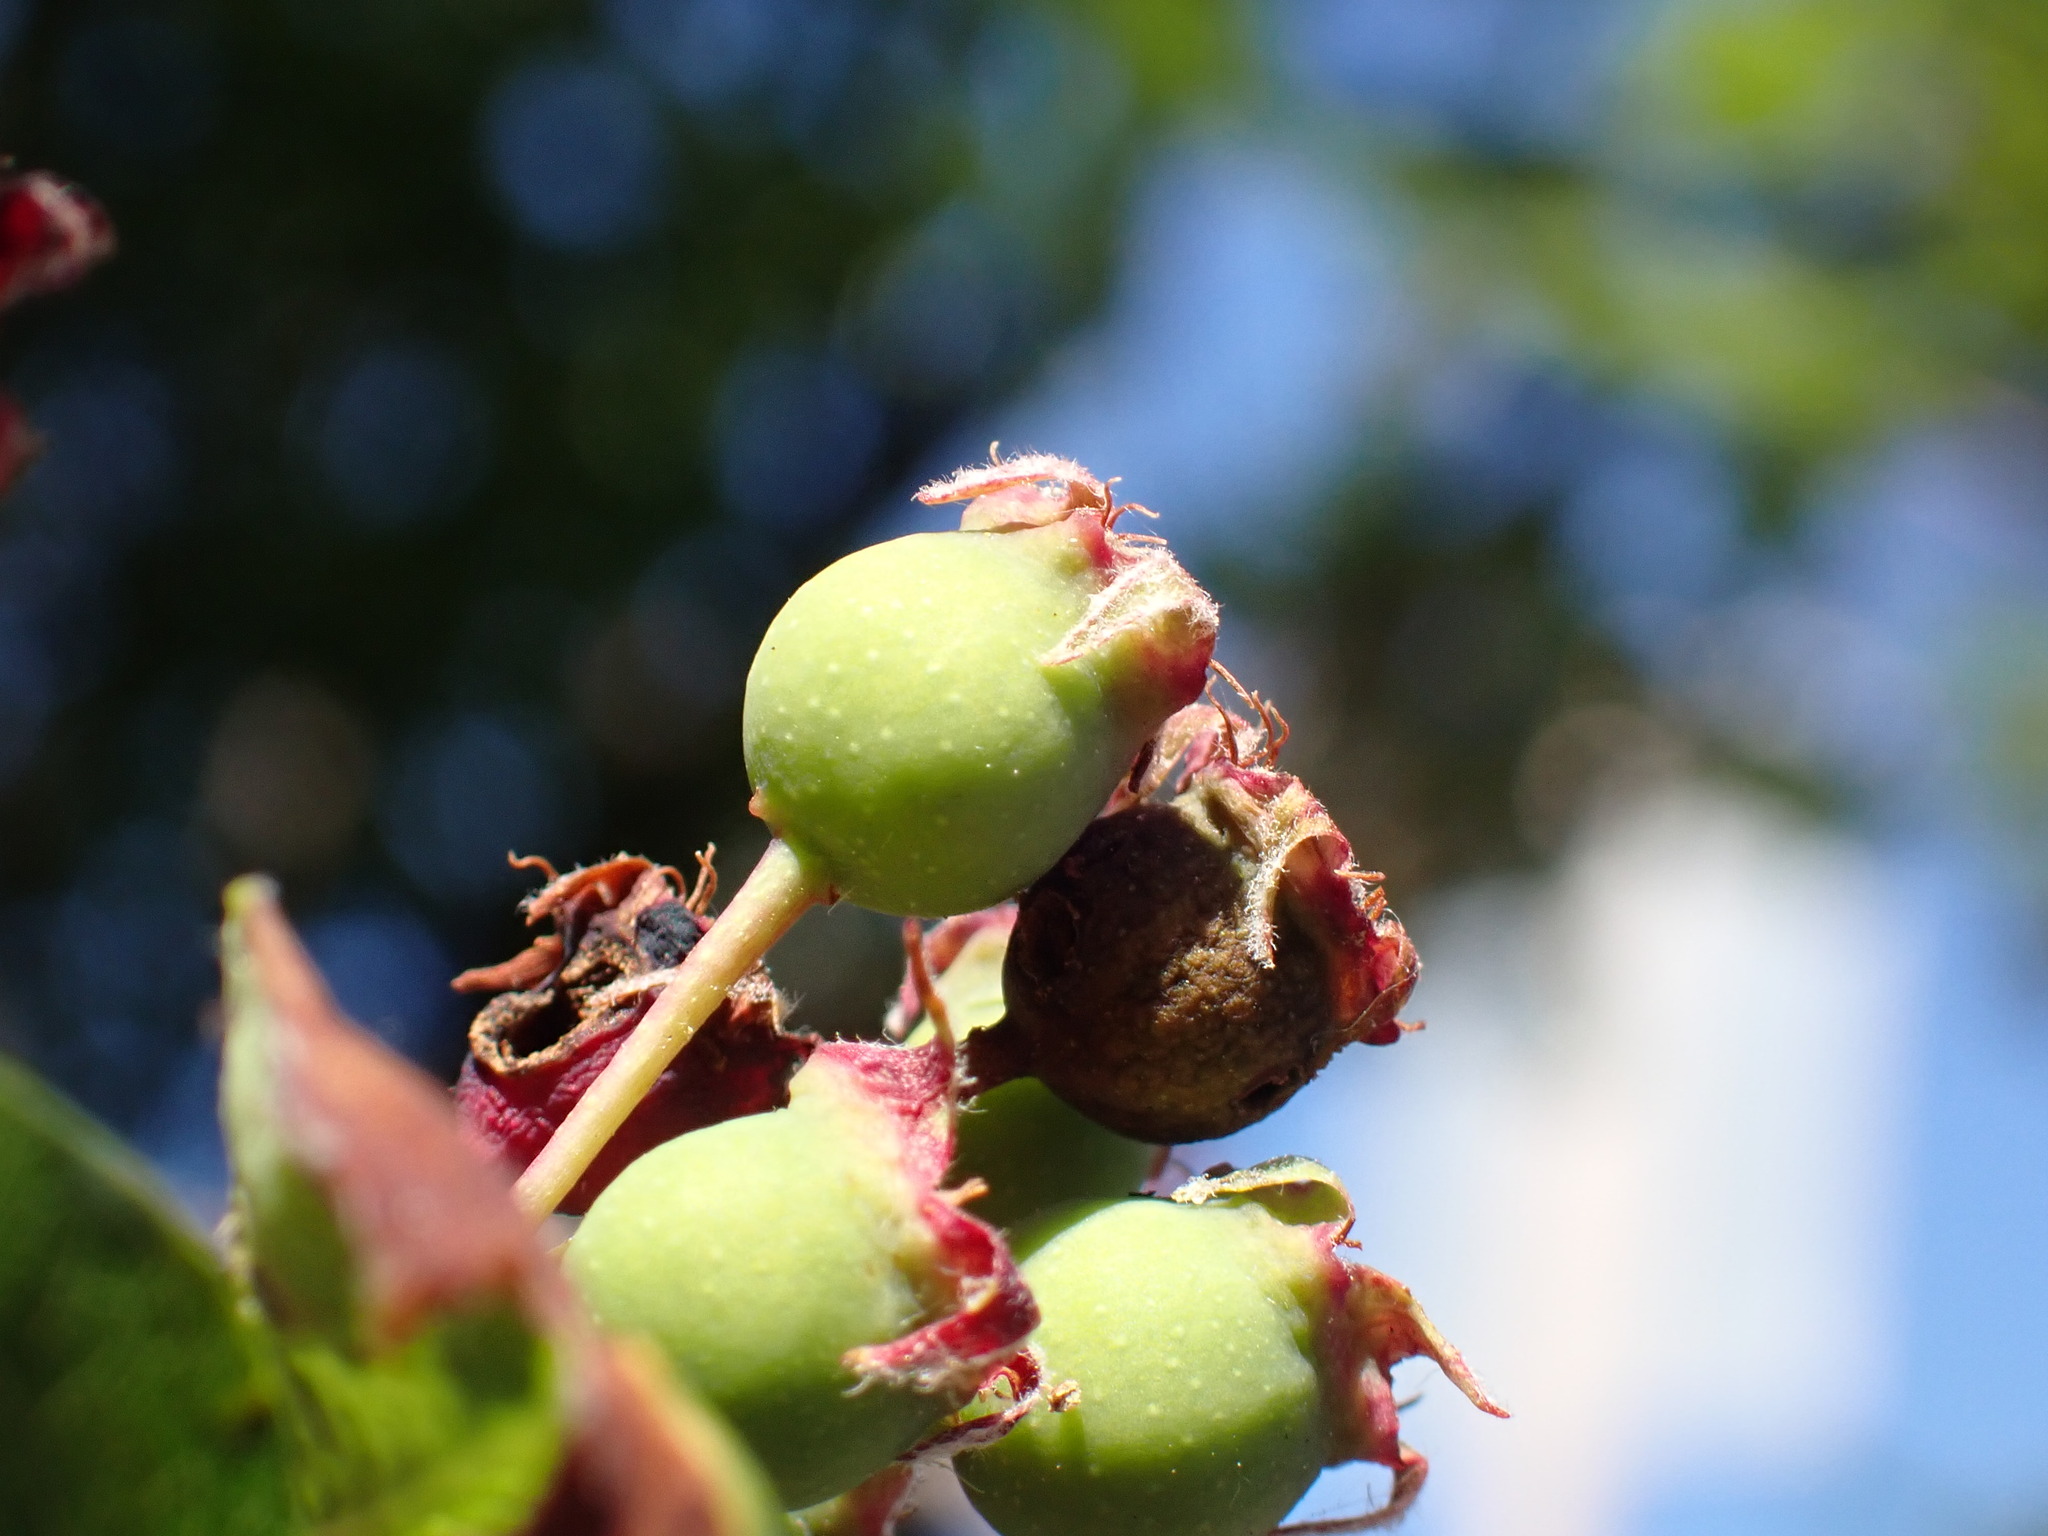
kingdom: Plantae
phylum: Tracheophyta
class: Magnoliopsida
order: Rosales
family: Rosaceae
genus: Amelanchier
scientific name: Amelanchier alnifolia
